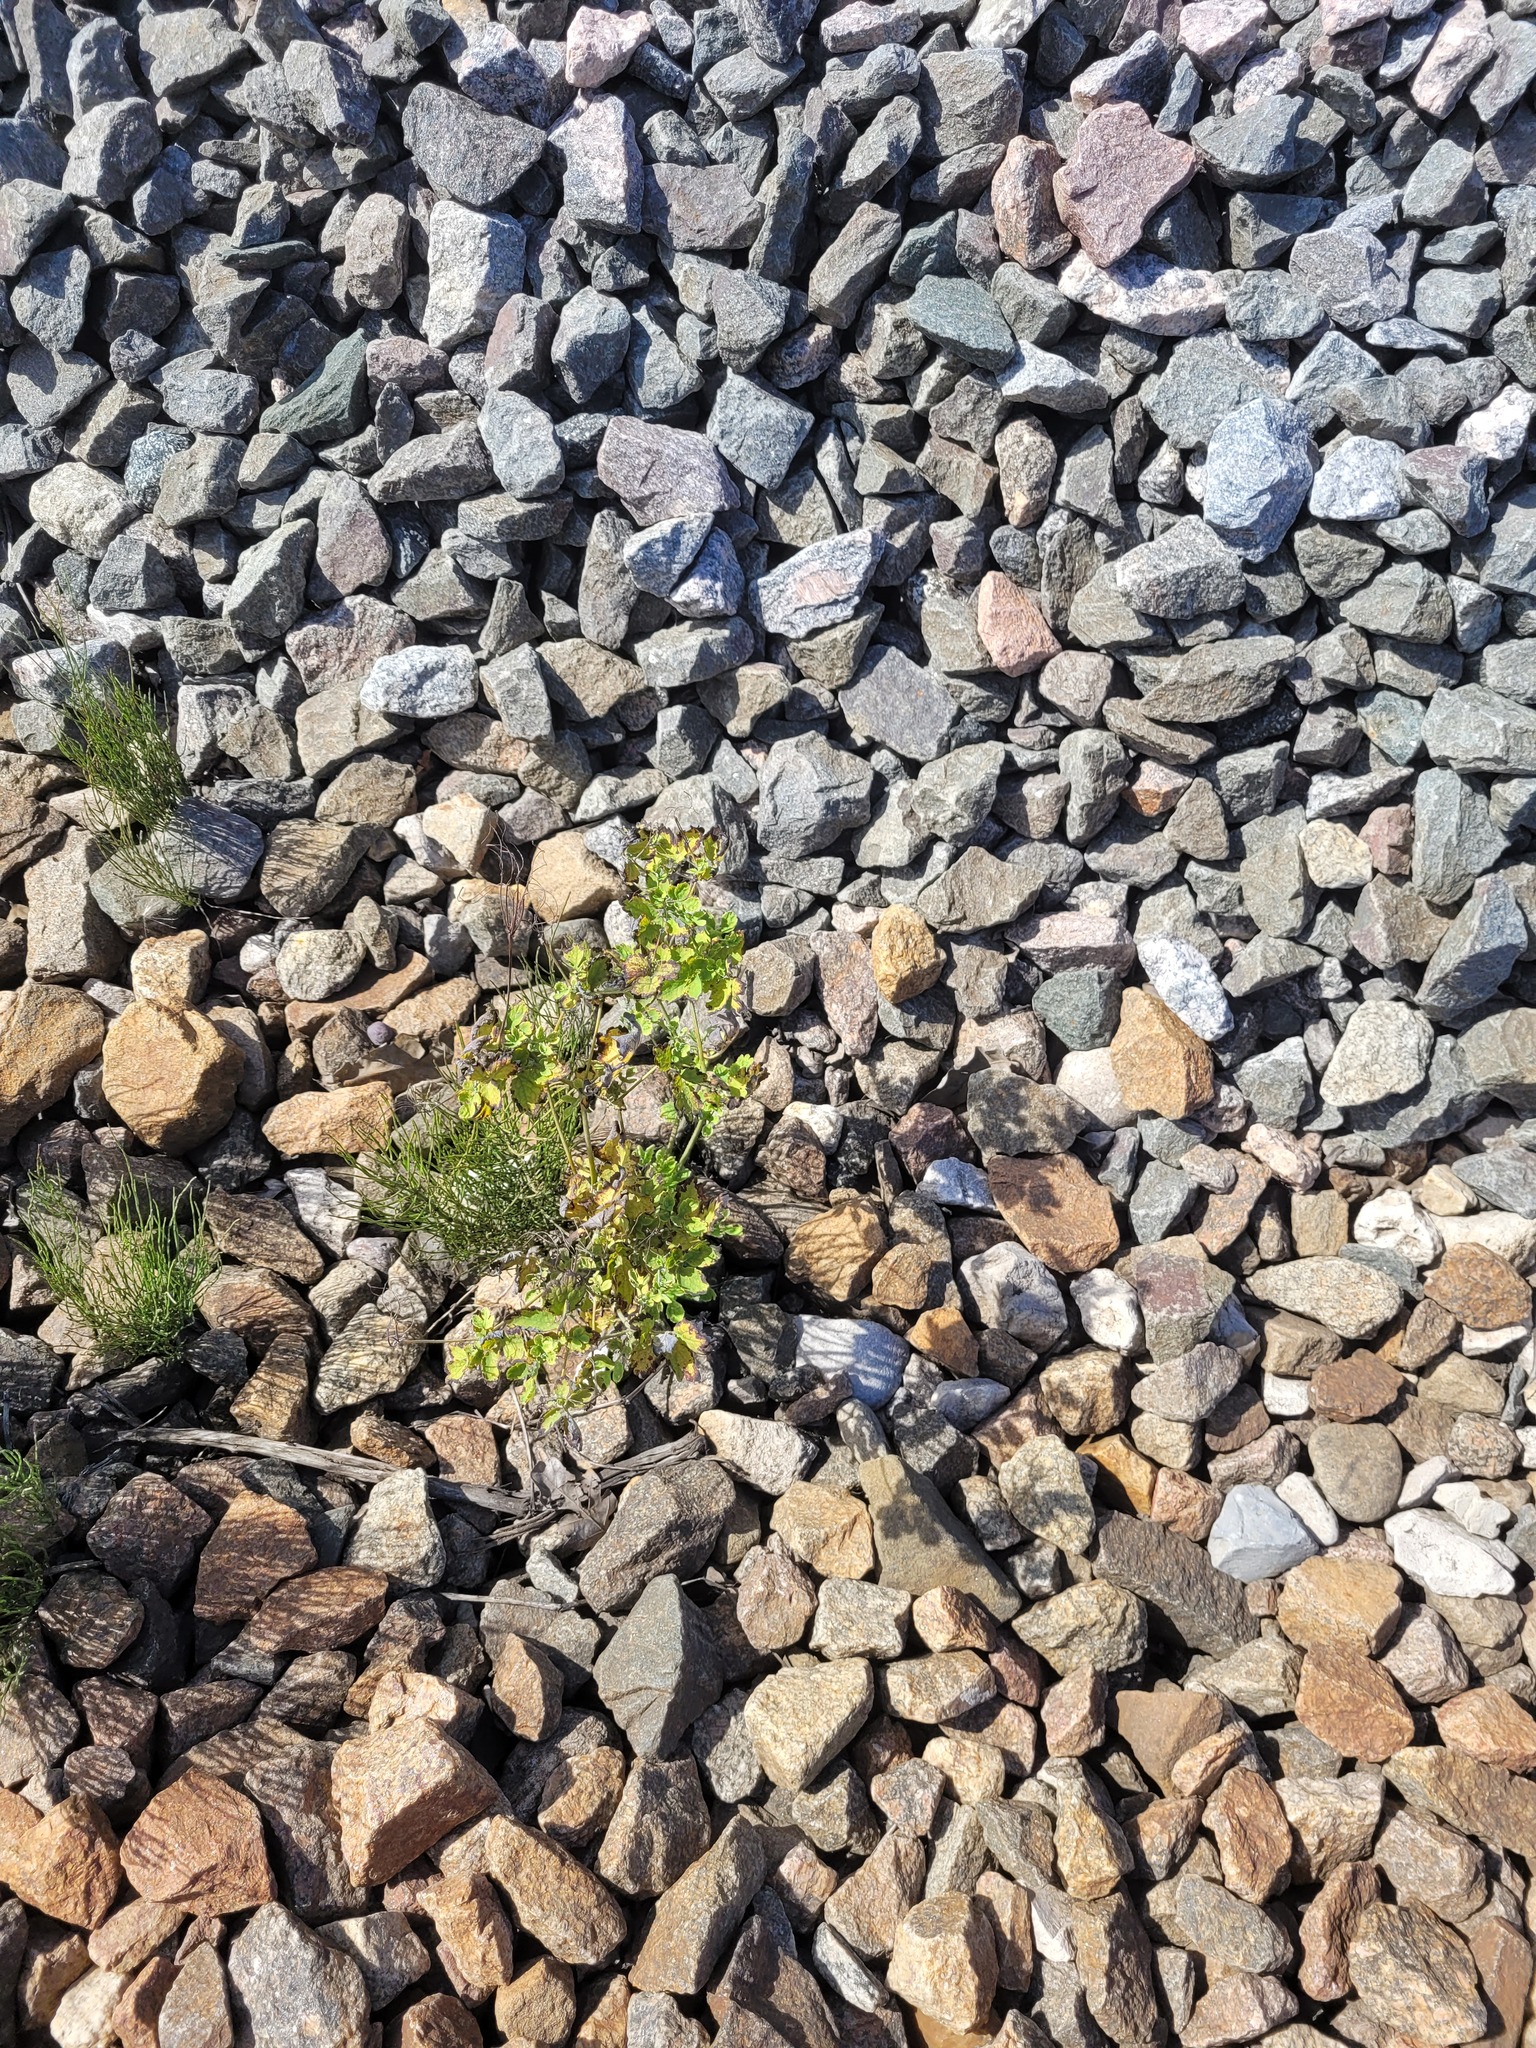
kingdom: Plantae
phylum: Tracheophyta
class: Magnoliopsida
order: Ranunculales
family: Papaveraceae
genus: Chelidonium
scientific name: Chelidonium majus
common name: Greater celandine
